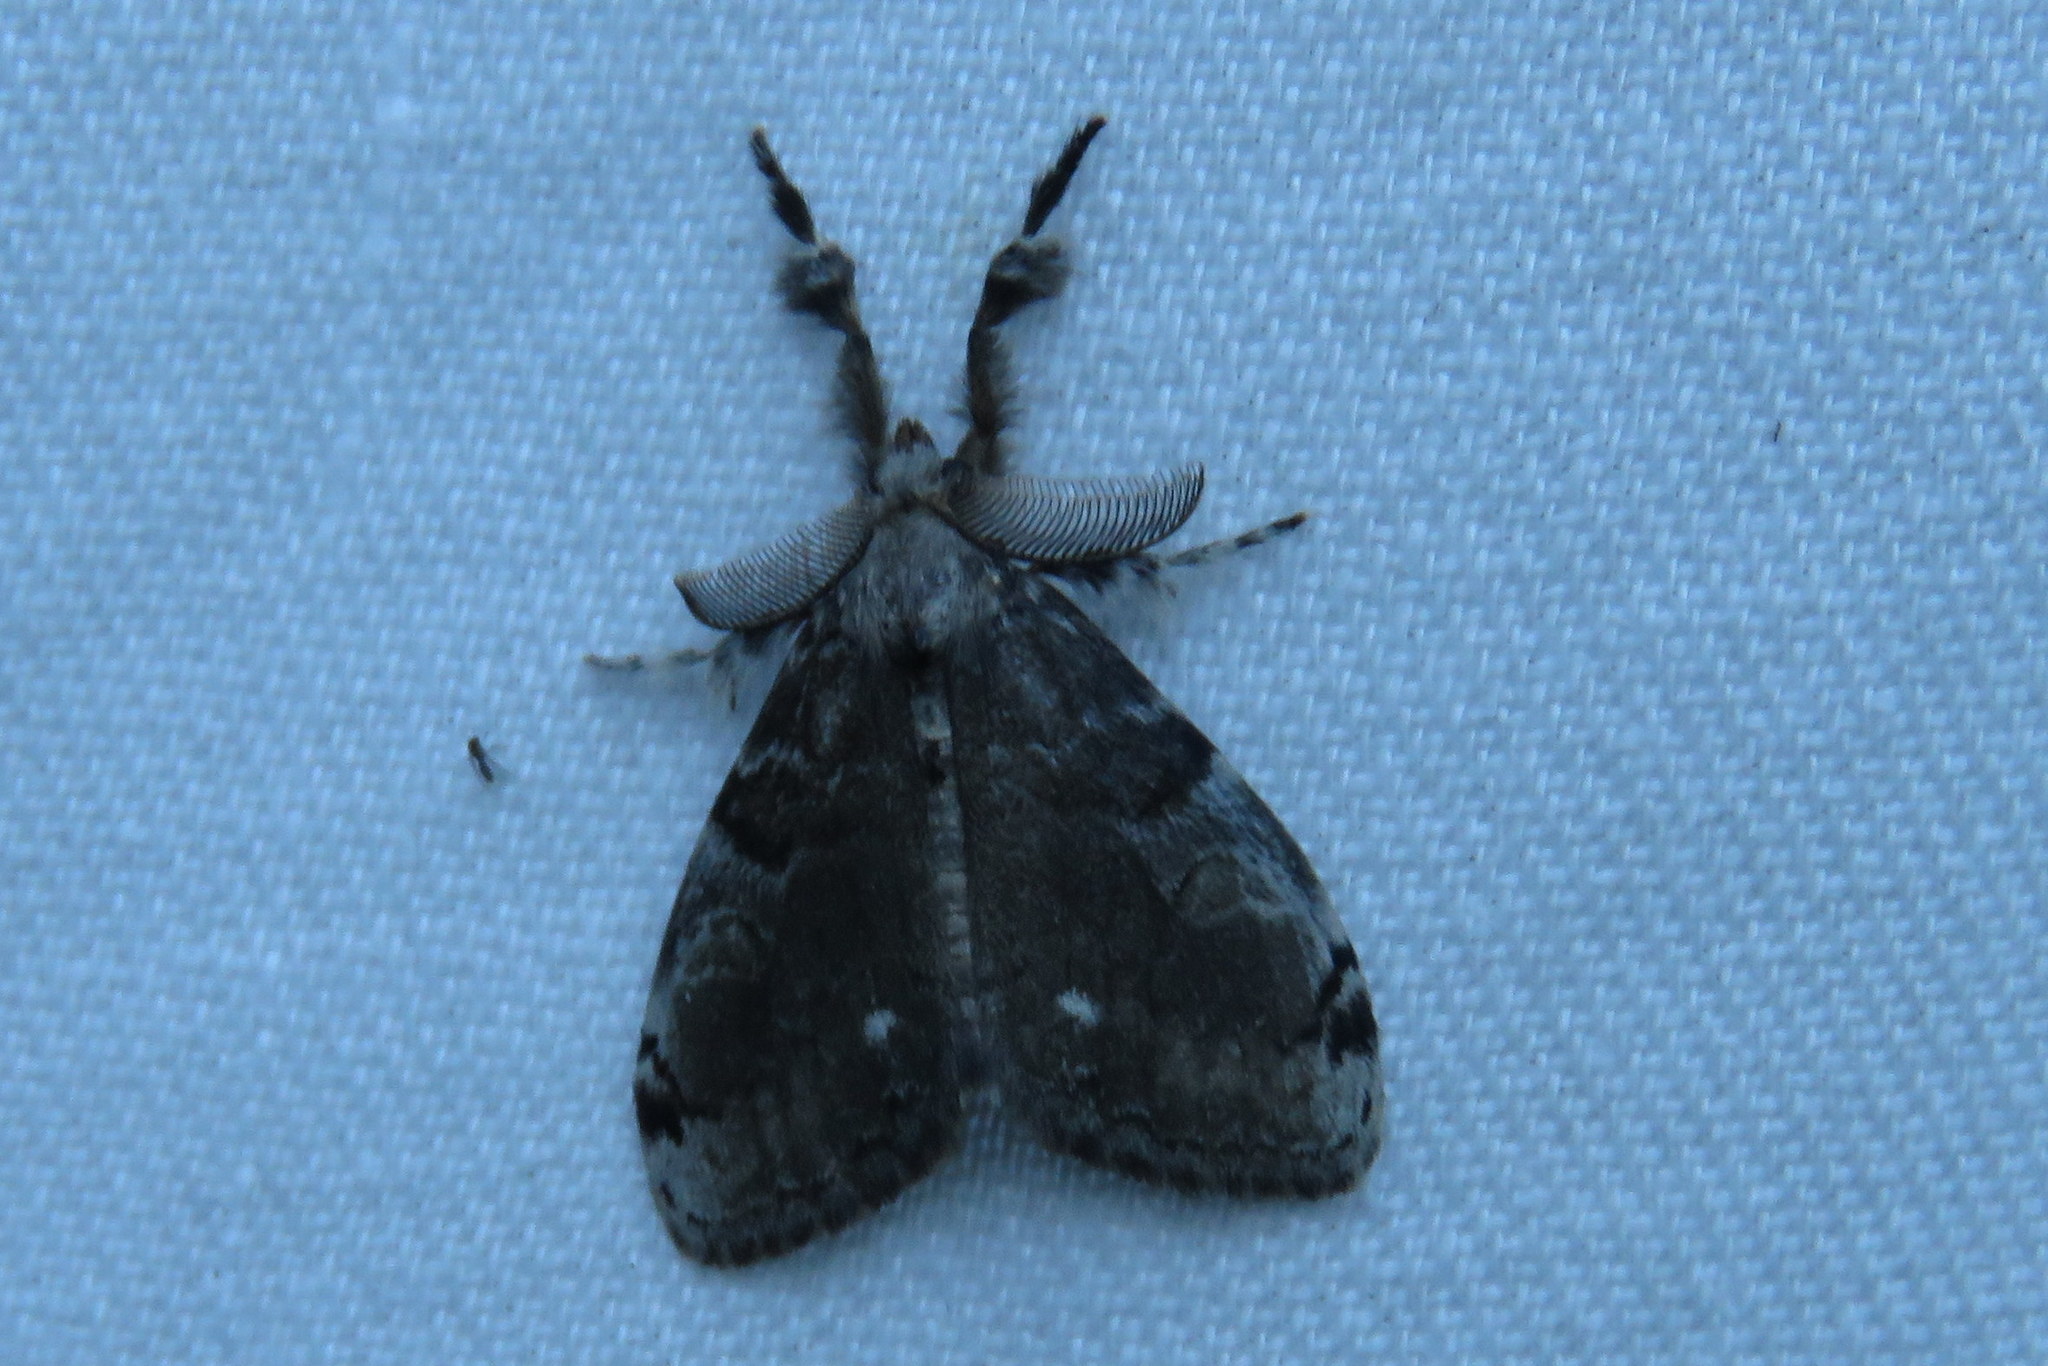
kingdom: Animalia
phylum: Arthropoda
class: Insecta
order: Lepidoptera
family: Erebidae
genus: Orgyia
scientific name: Orgyia leucostigma
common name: White-marked tussock moth
